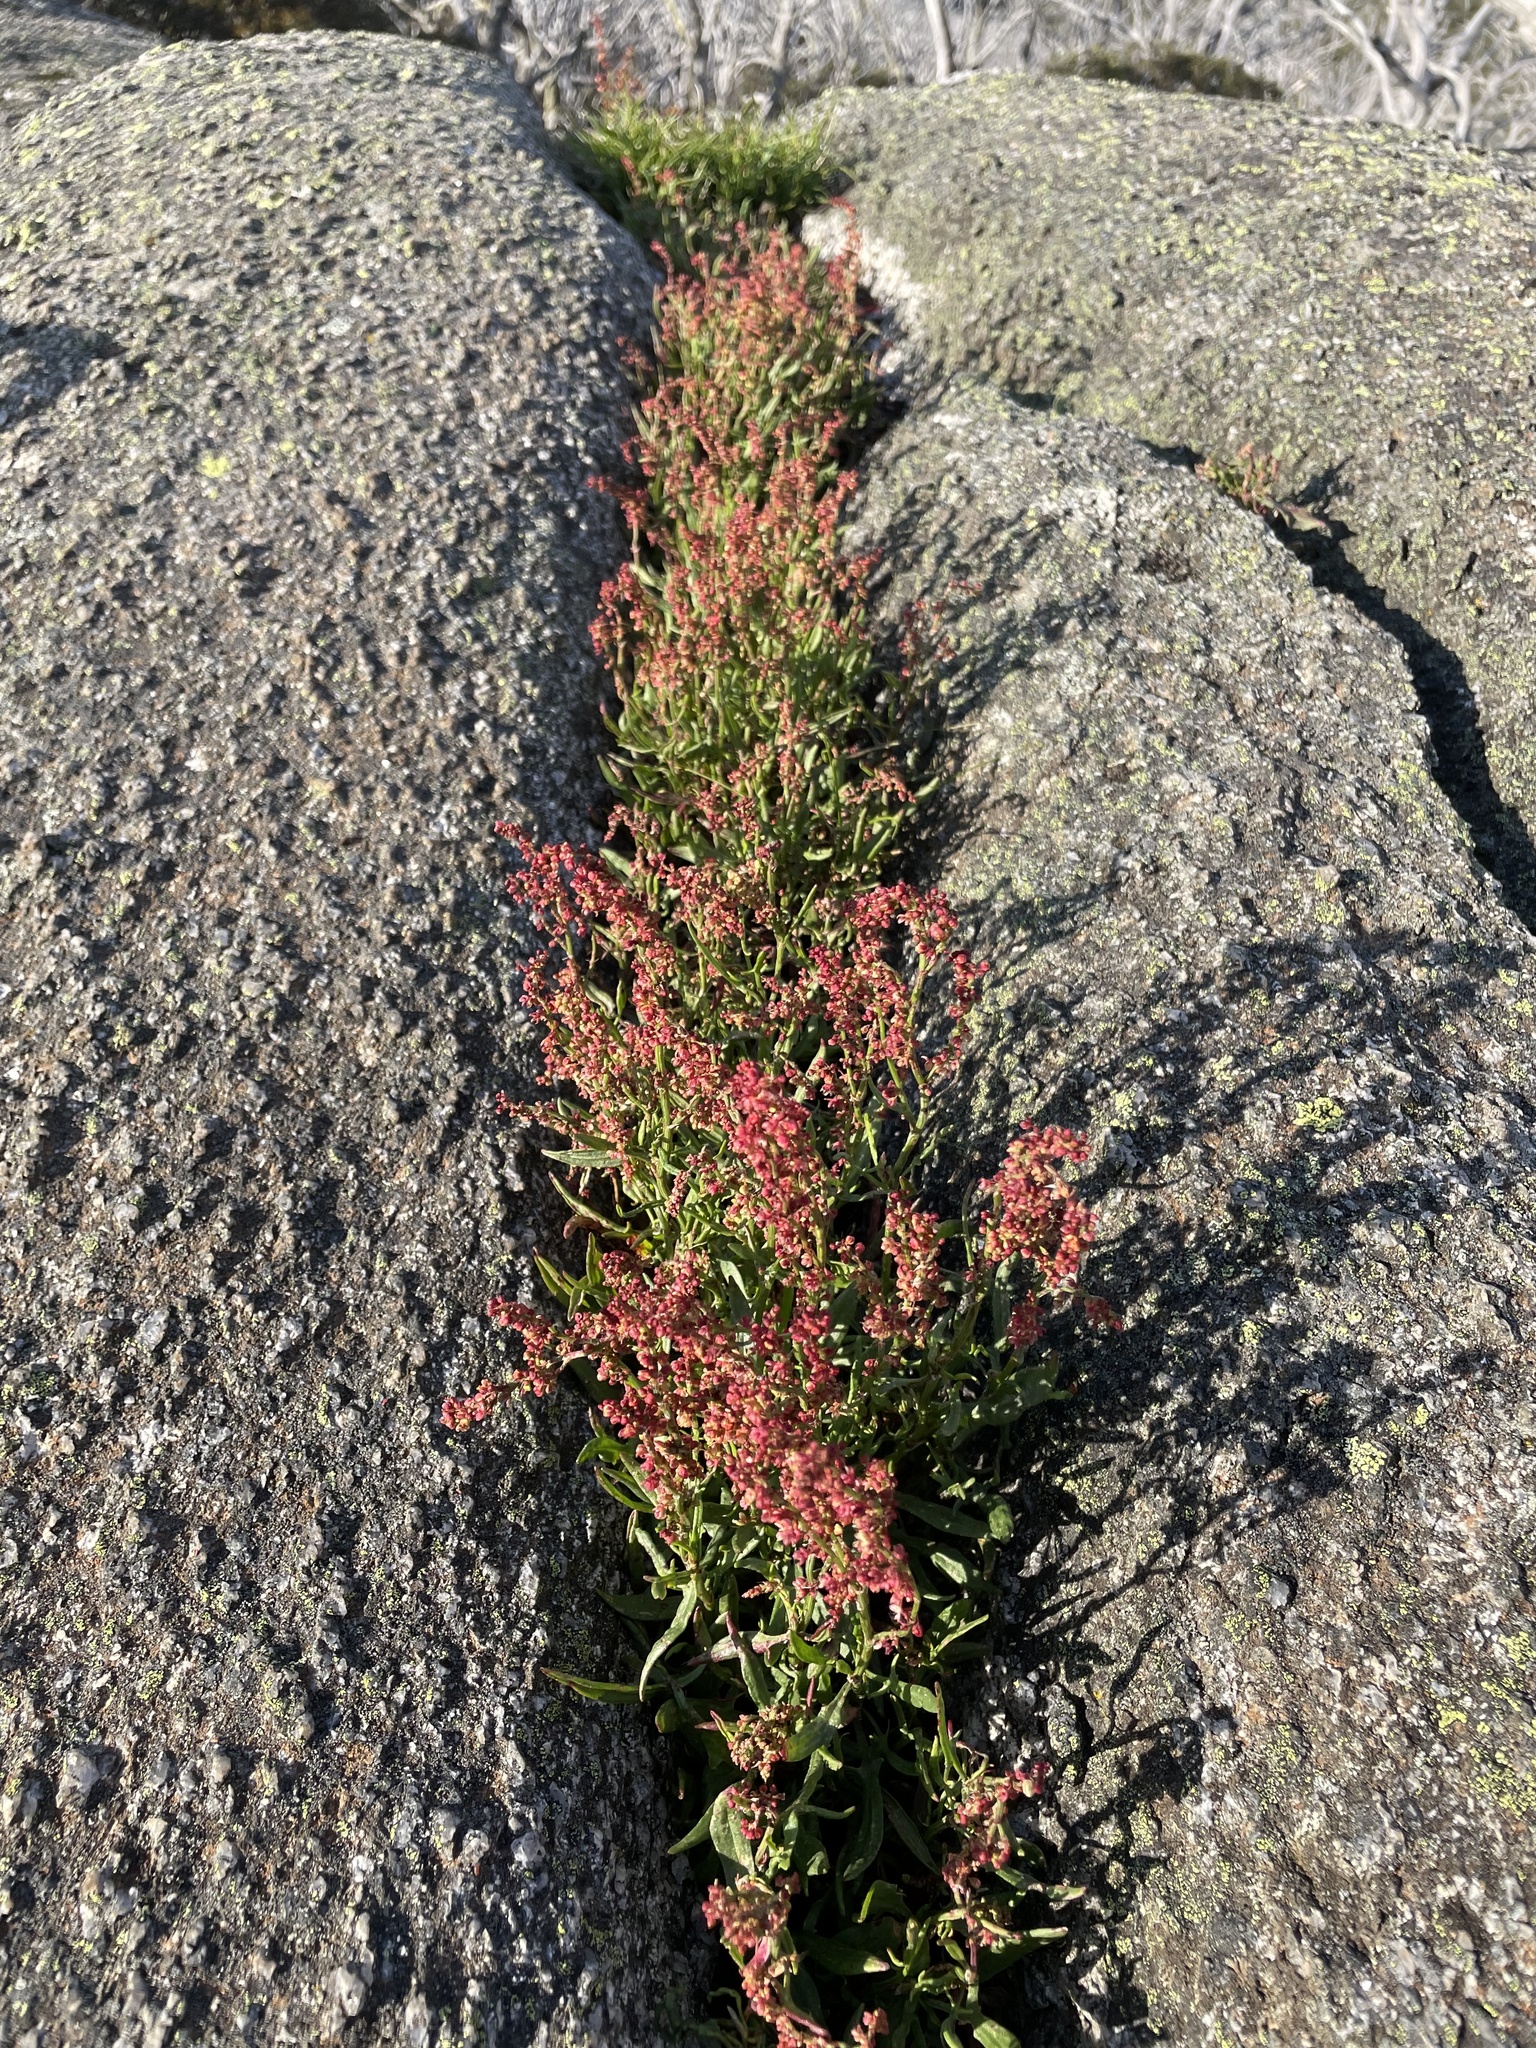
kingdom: Plantae
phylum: Tracheophyta
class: Magnoliopsida
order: Caryophyllales
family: Polygonaceae
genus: Rumex
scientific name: Rumex acetosella
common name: Common sheep sorrel
